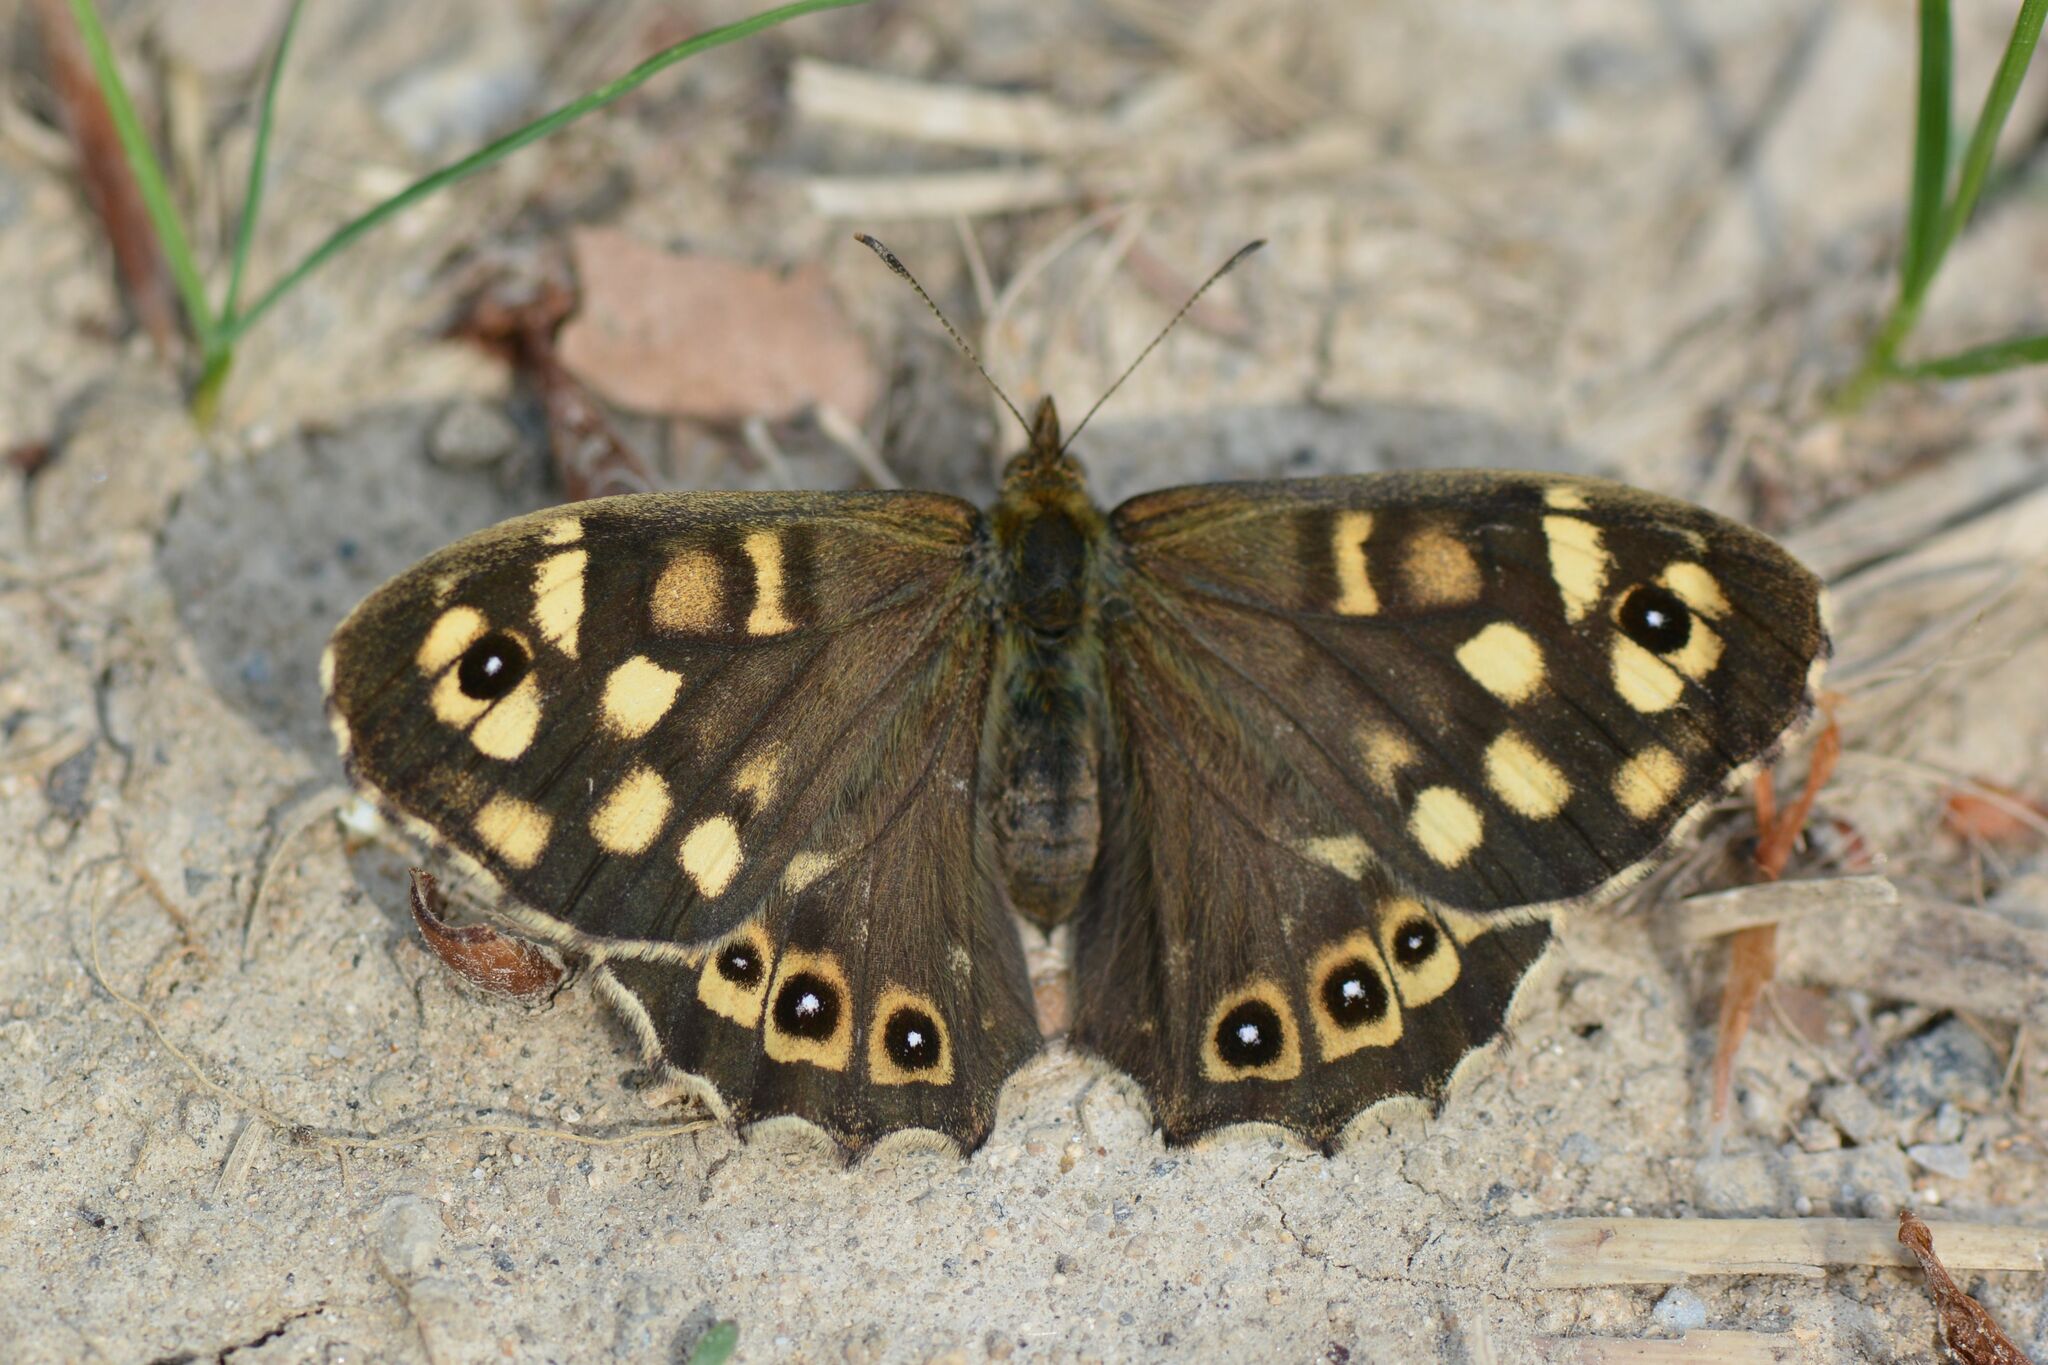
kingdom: Animalia
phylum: Arthropoda
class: Insecta
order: Lepidoptera
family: Nymphalidae
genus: Pararge
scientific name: Pararge aegeria
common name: Speckled wood
